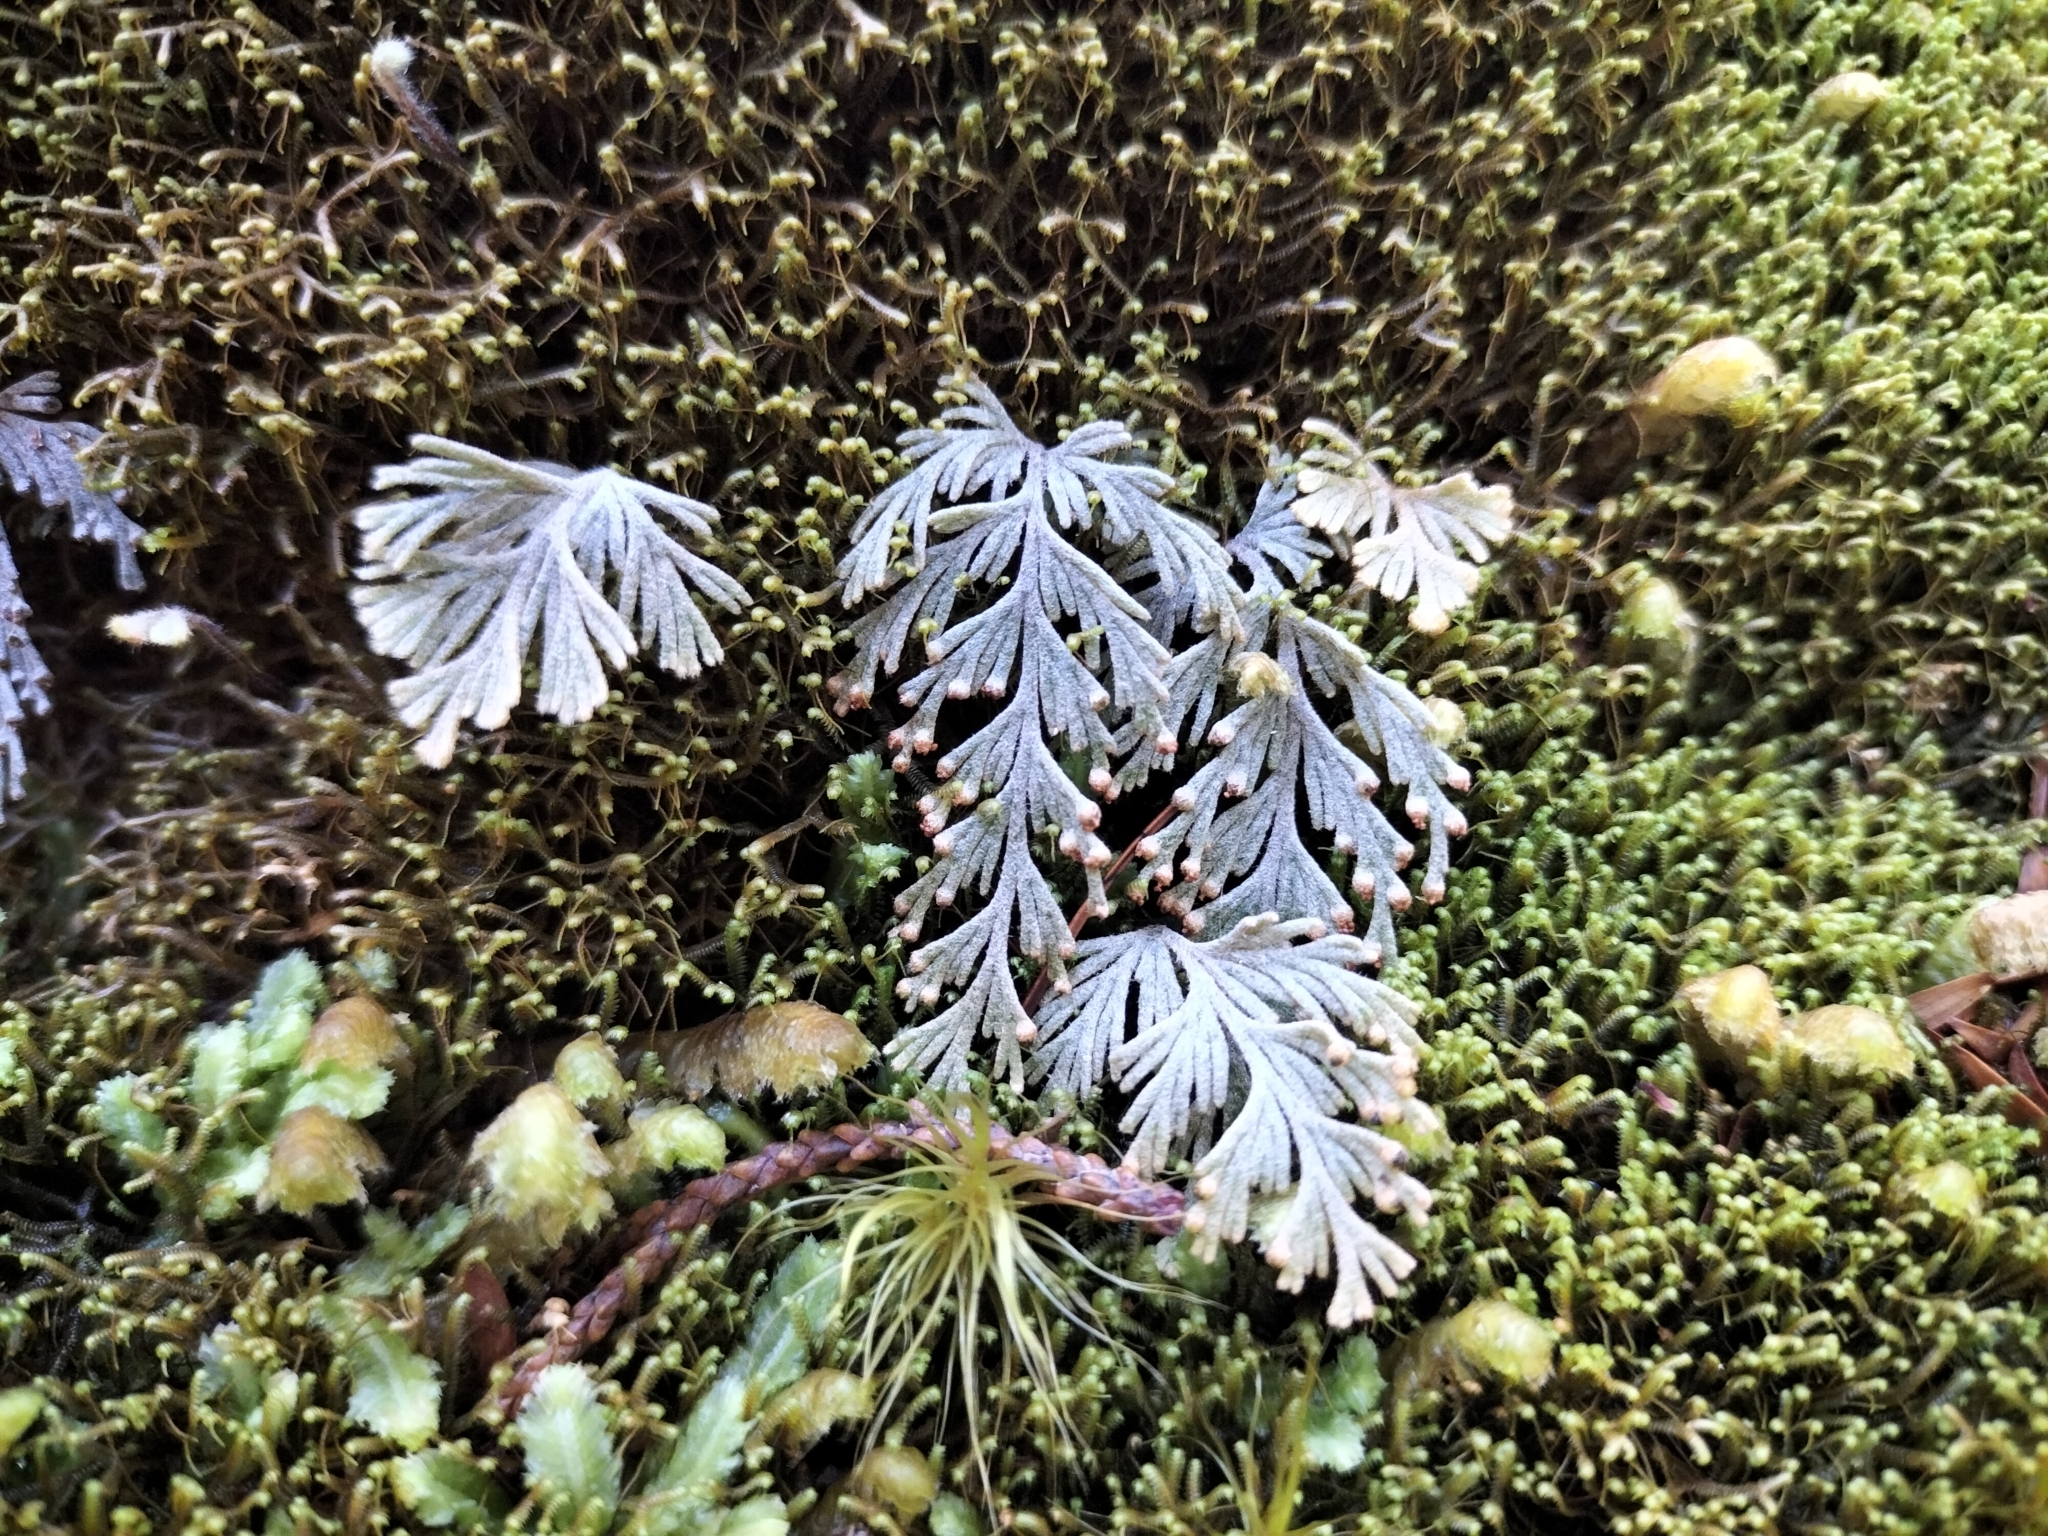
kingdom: Plantae
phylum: Tracheophyta
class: Polypodiopsida
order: Hymenophyllales
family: Hymenophyllaceae
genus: Hymenophyllum
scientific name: Hymenophyllum malingii
